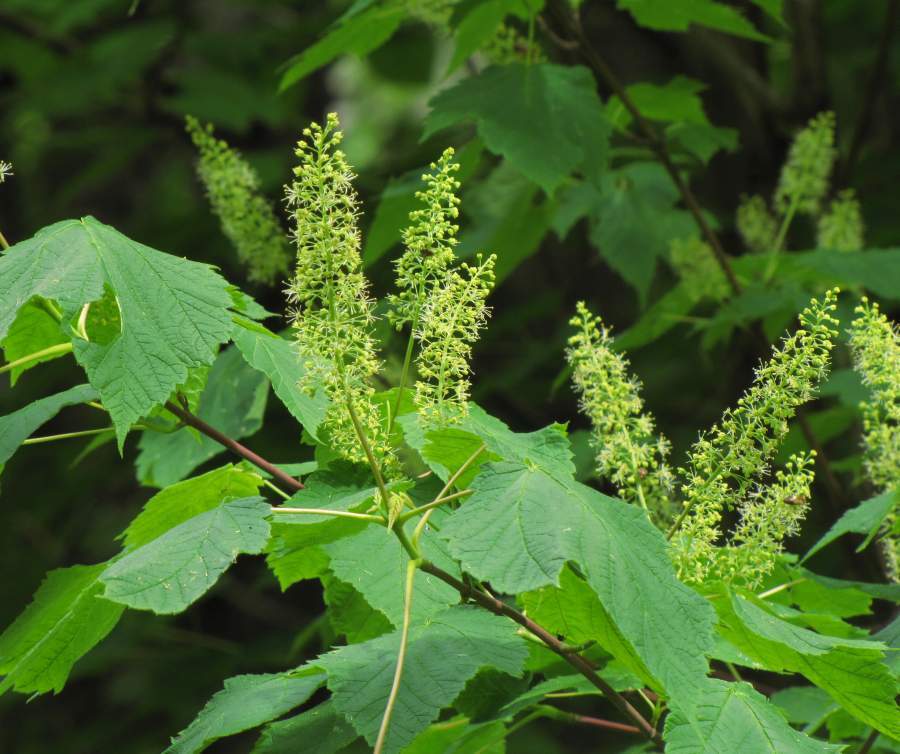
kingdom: Plantae
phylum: Tracheophyta
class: Magnoliopsida
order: Sapindales
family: Sapindaceae
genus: Acer
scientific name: Acer spicatum
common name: Mountain maple
